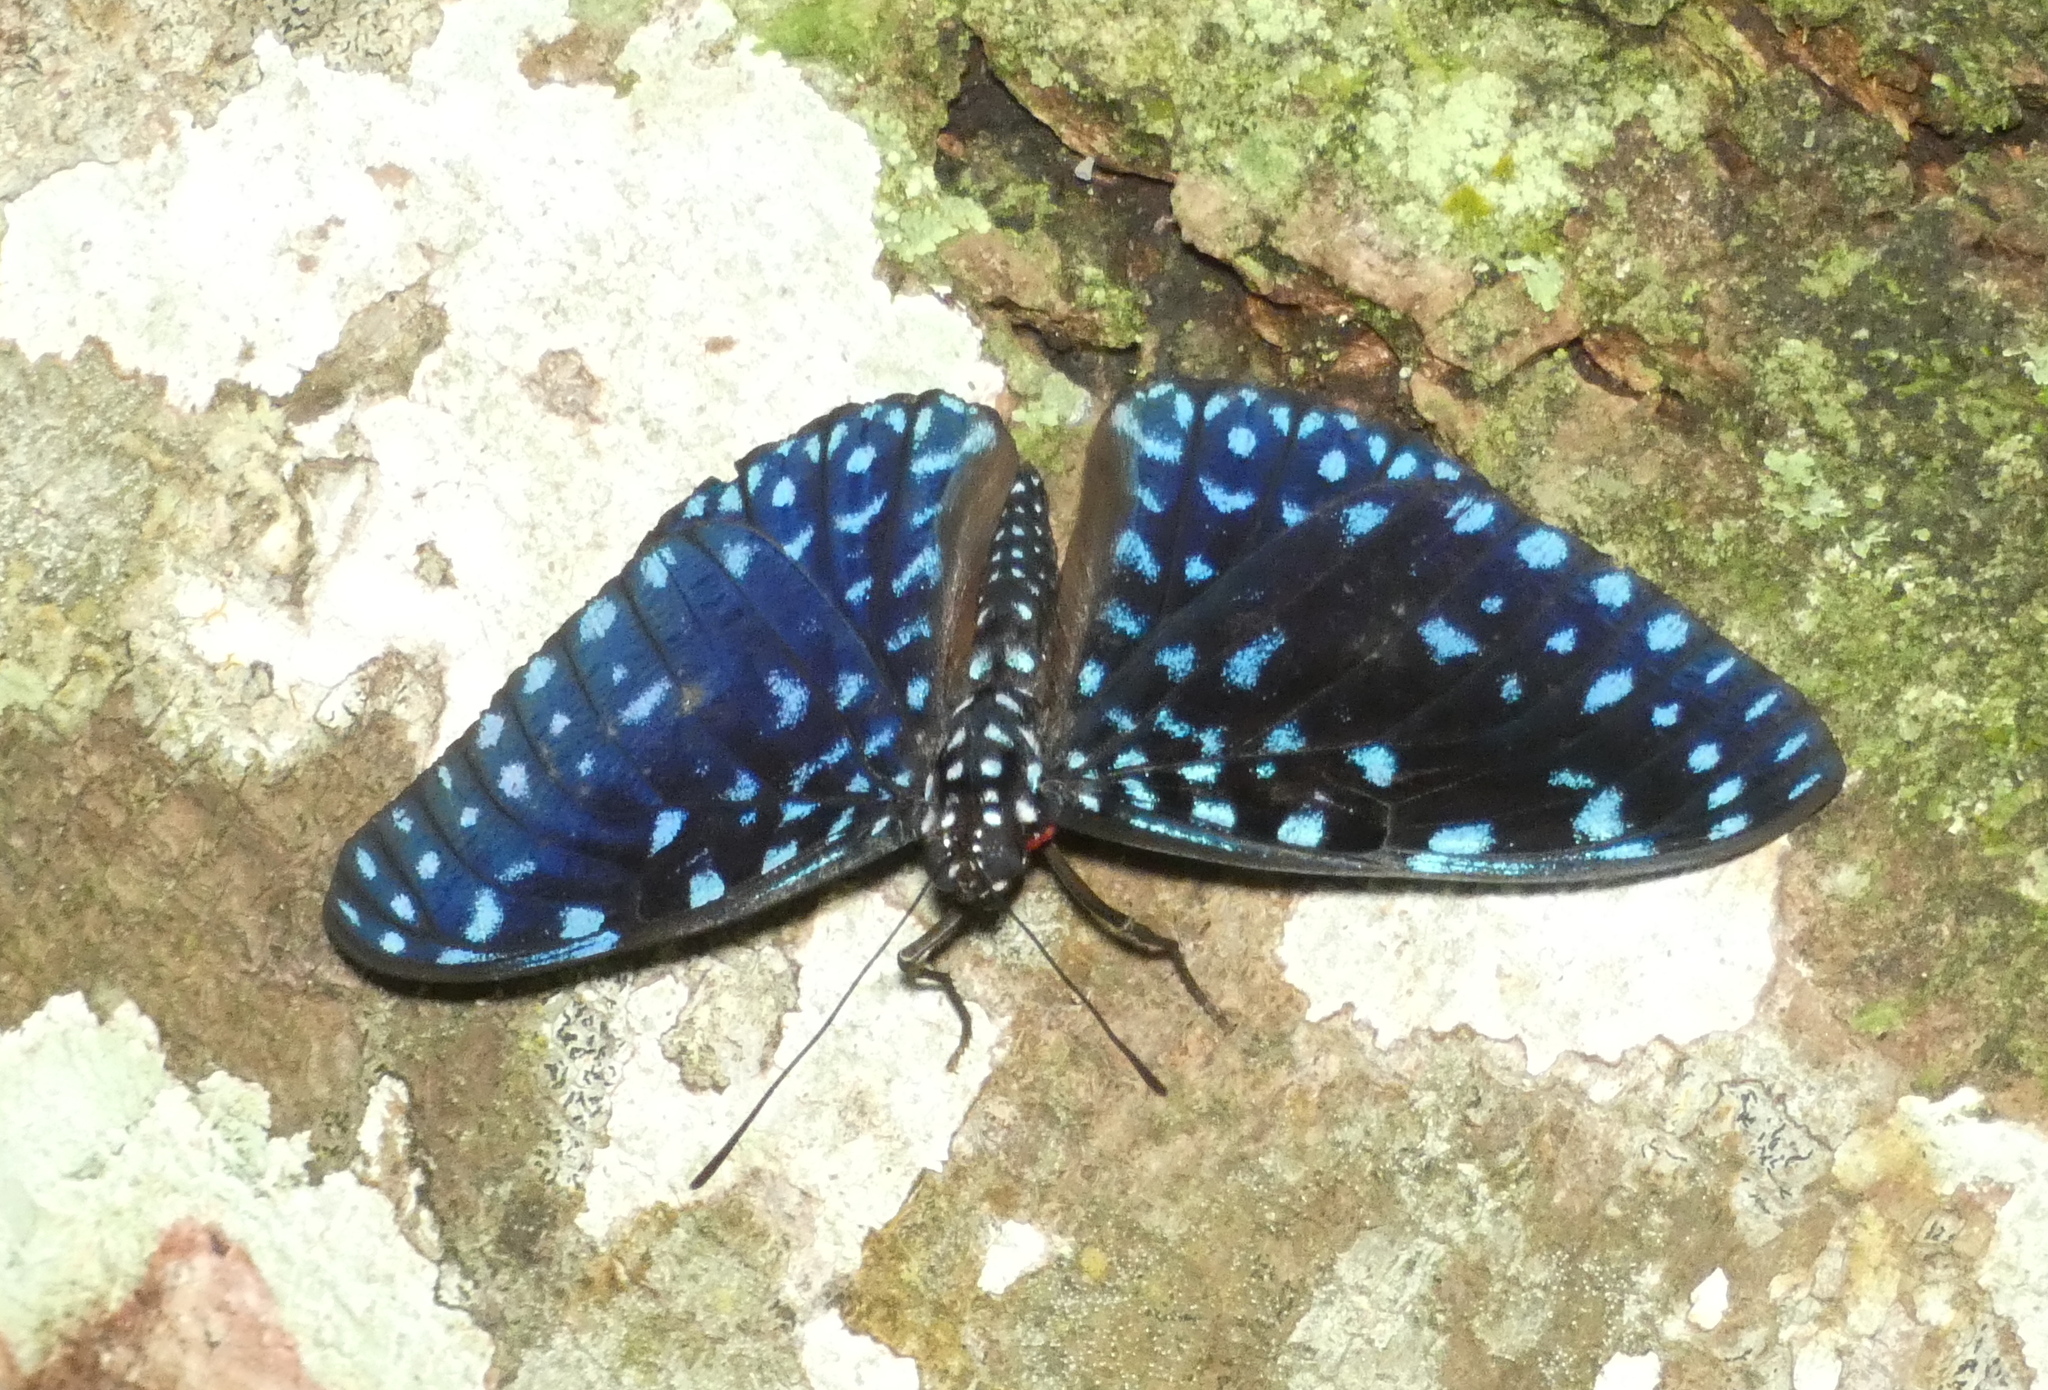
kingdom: Animalia
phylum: Arthropoda
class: Insecta
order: Lepidoptera
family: Nymphalidae
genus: Hamadryas
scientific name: Hamadryas laodamia
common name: Starry night cracker
